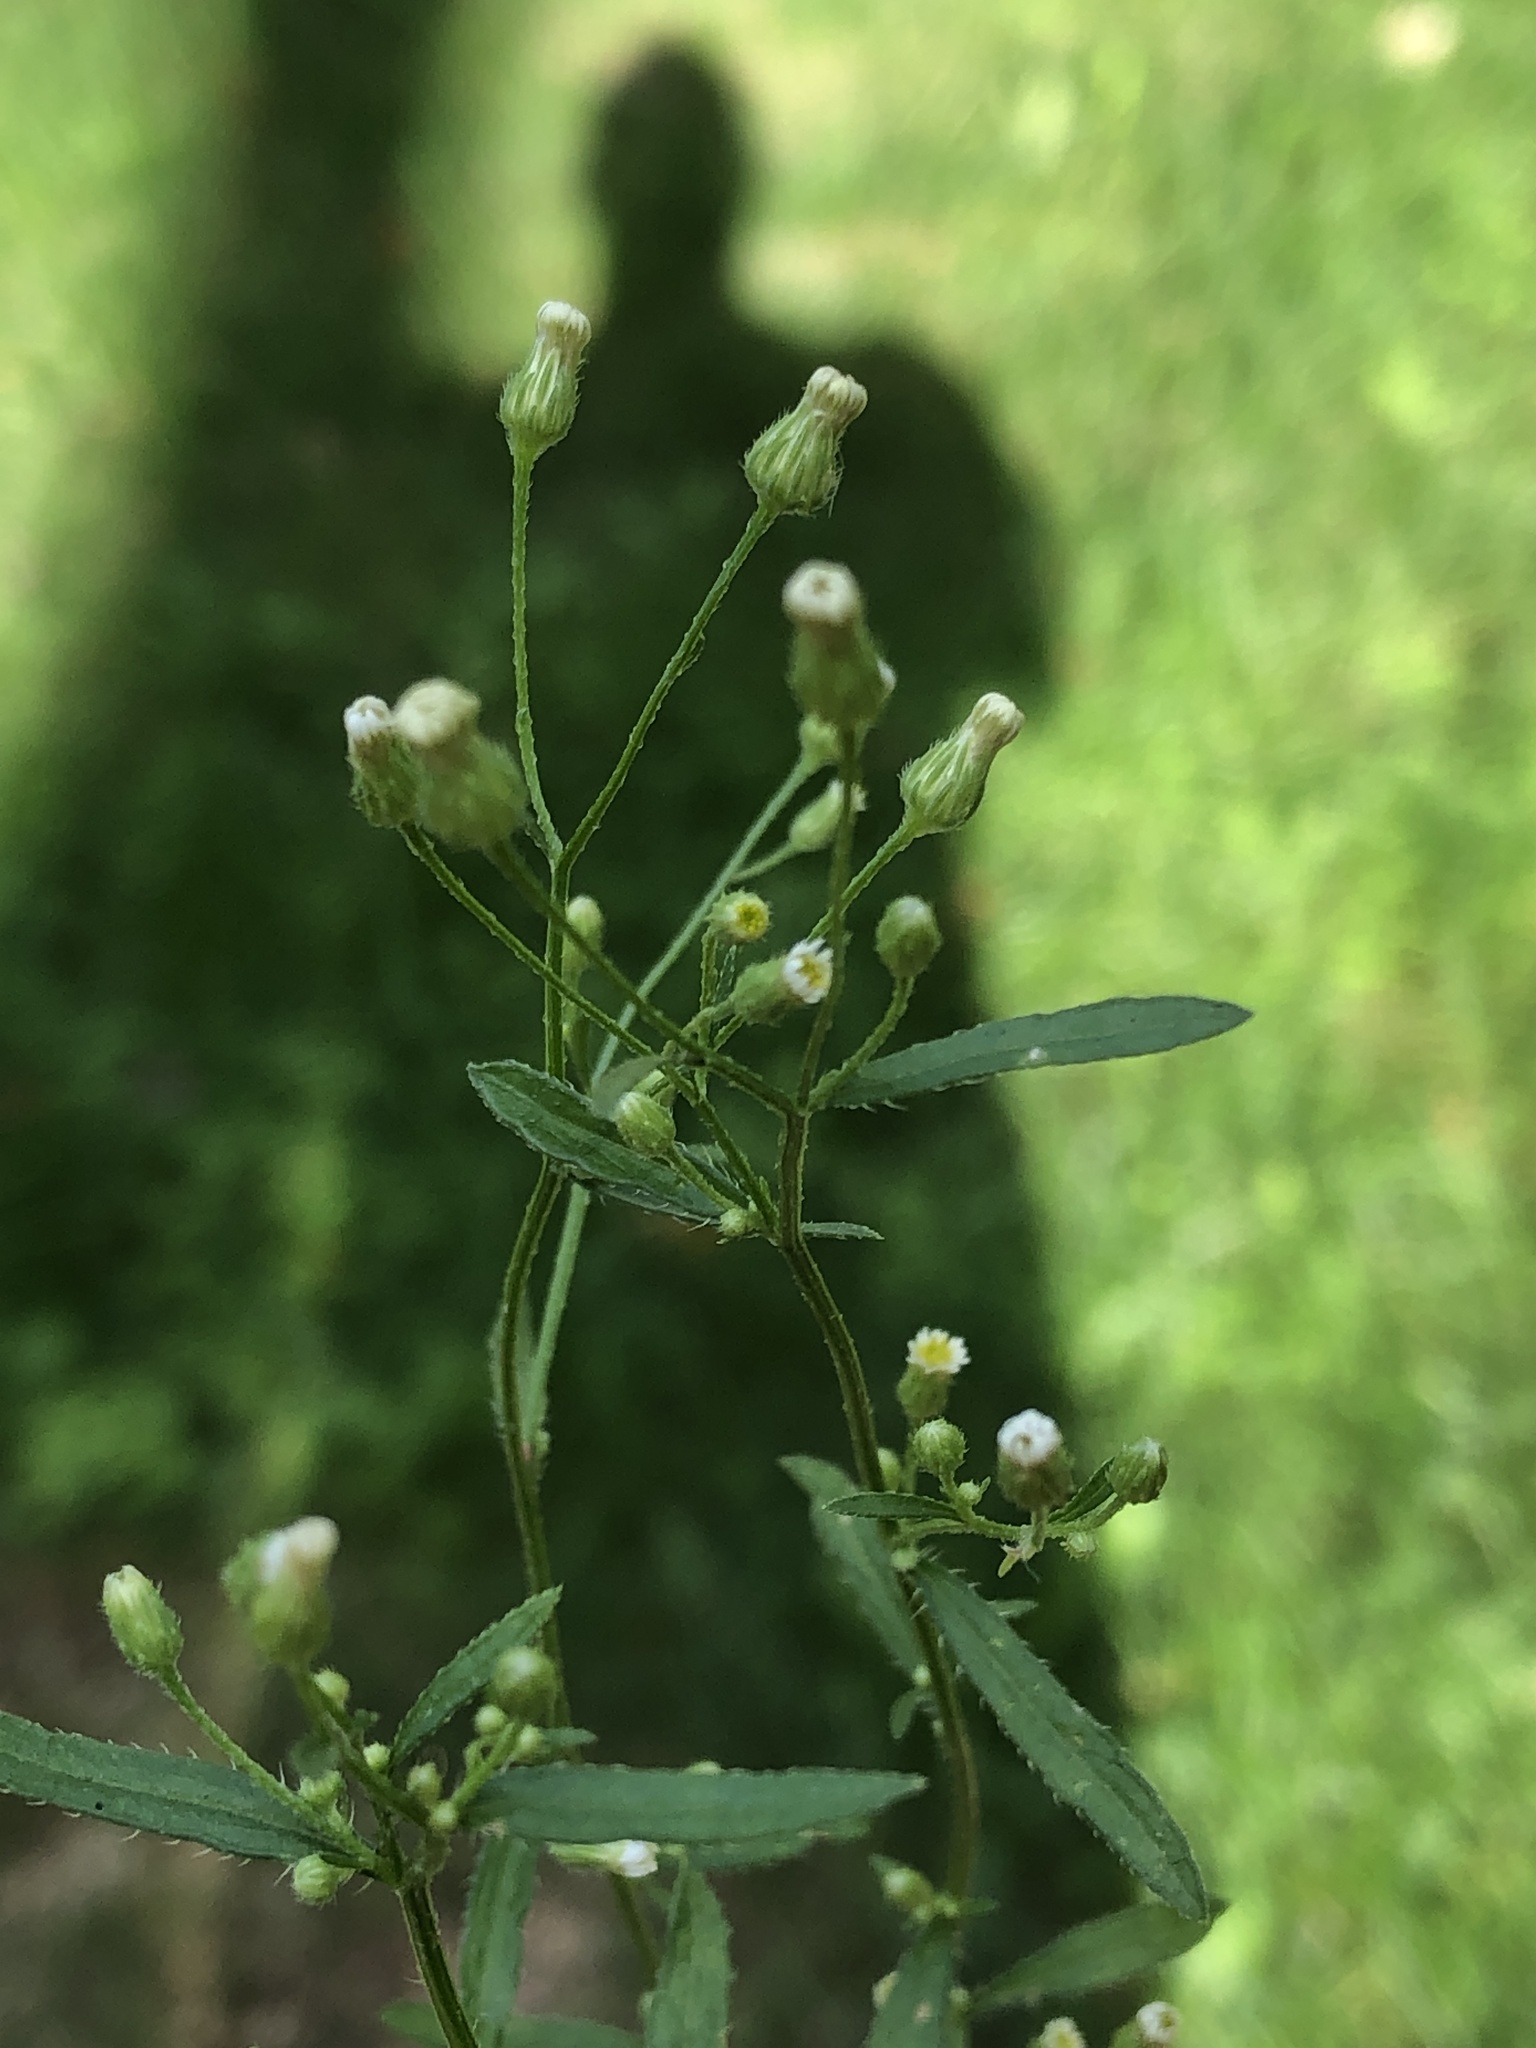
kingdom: Plantae
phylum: Tracheophyta
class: Magnoliopsida
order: Asterales
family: Asteraceae
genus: Erigeron
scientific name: Erigeron canadensis
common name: Canadian fleabane
